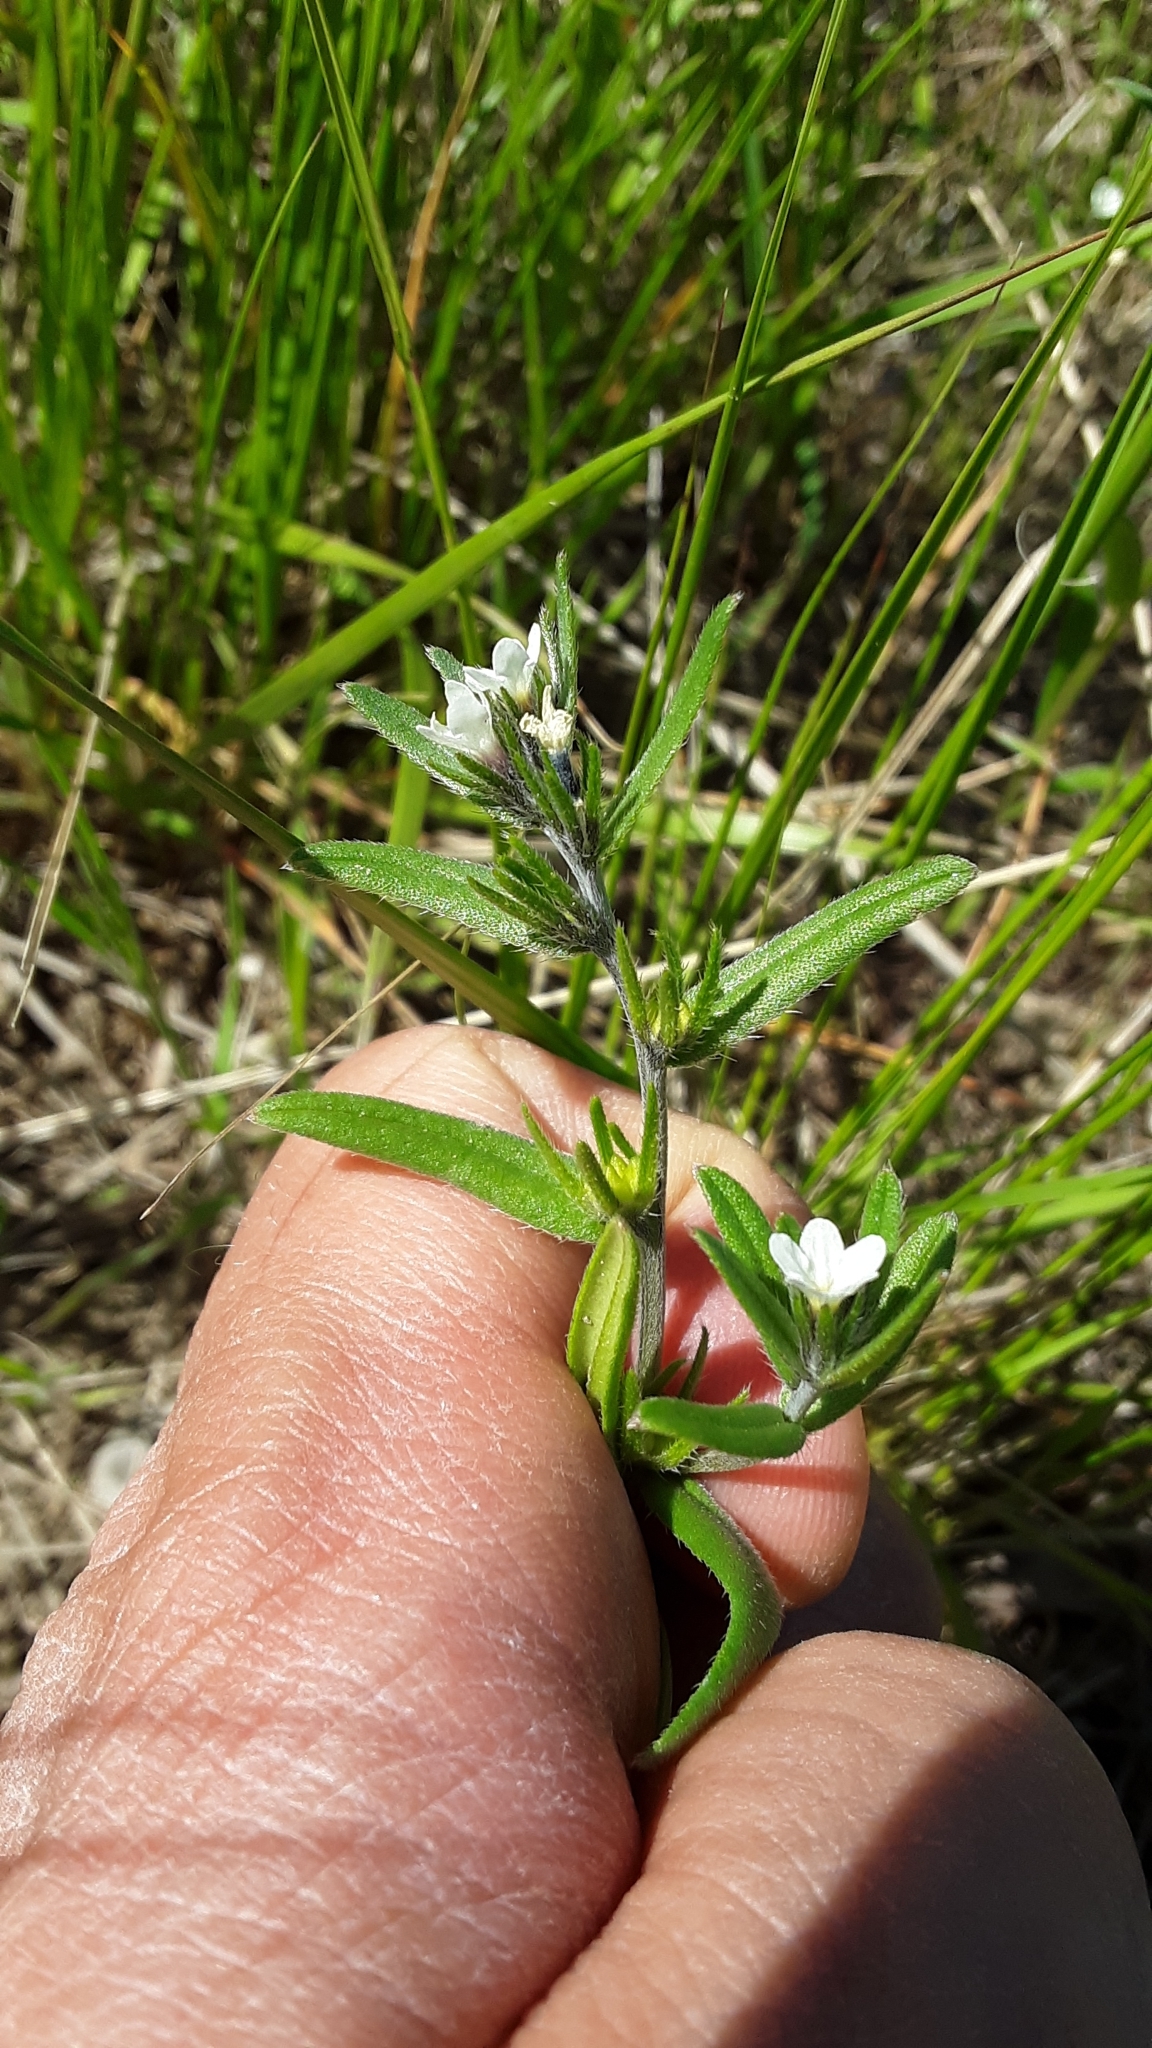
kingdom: Plantae
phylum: Tracheophyta
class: Magnoliopsida
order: Boraginales
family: Boraginaceae
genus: Buglossoides
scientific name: Buglossoides arvensis
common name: Corn gromwell
